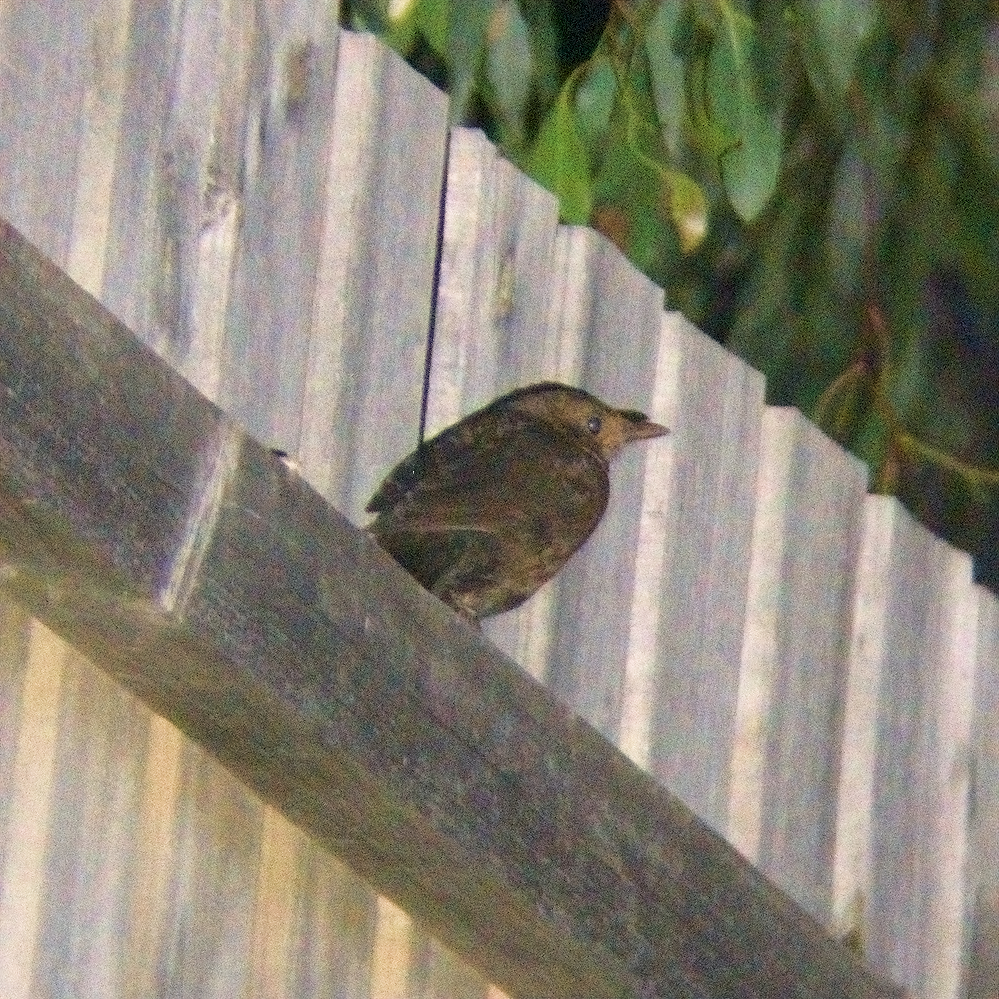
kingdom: Animalia
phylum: Chordata
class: Aves
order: Passeriformes
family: Turdidae
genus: Turdus
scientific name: Turdus merula
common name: Common blackbird
